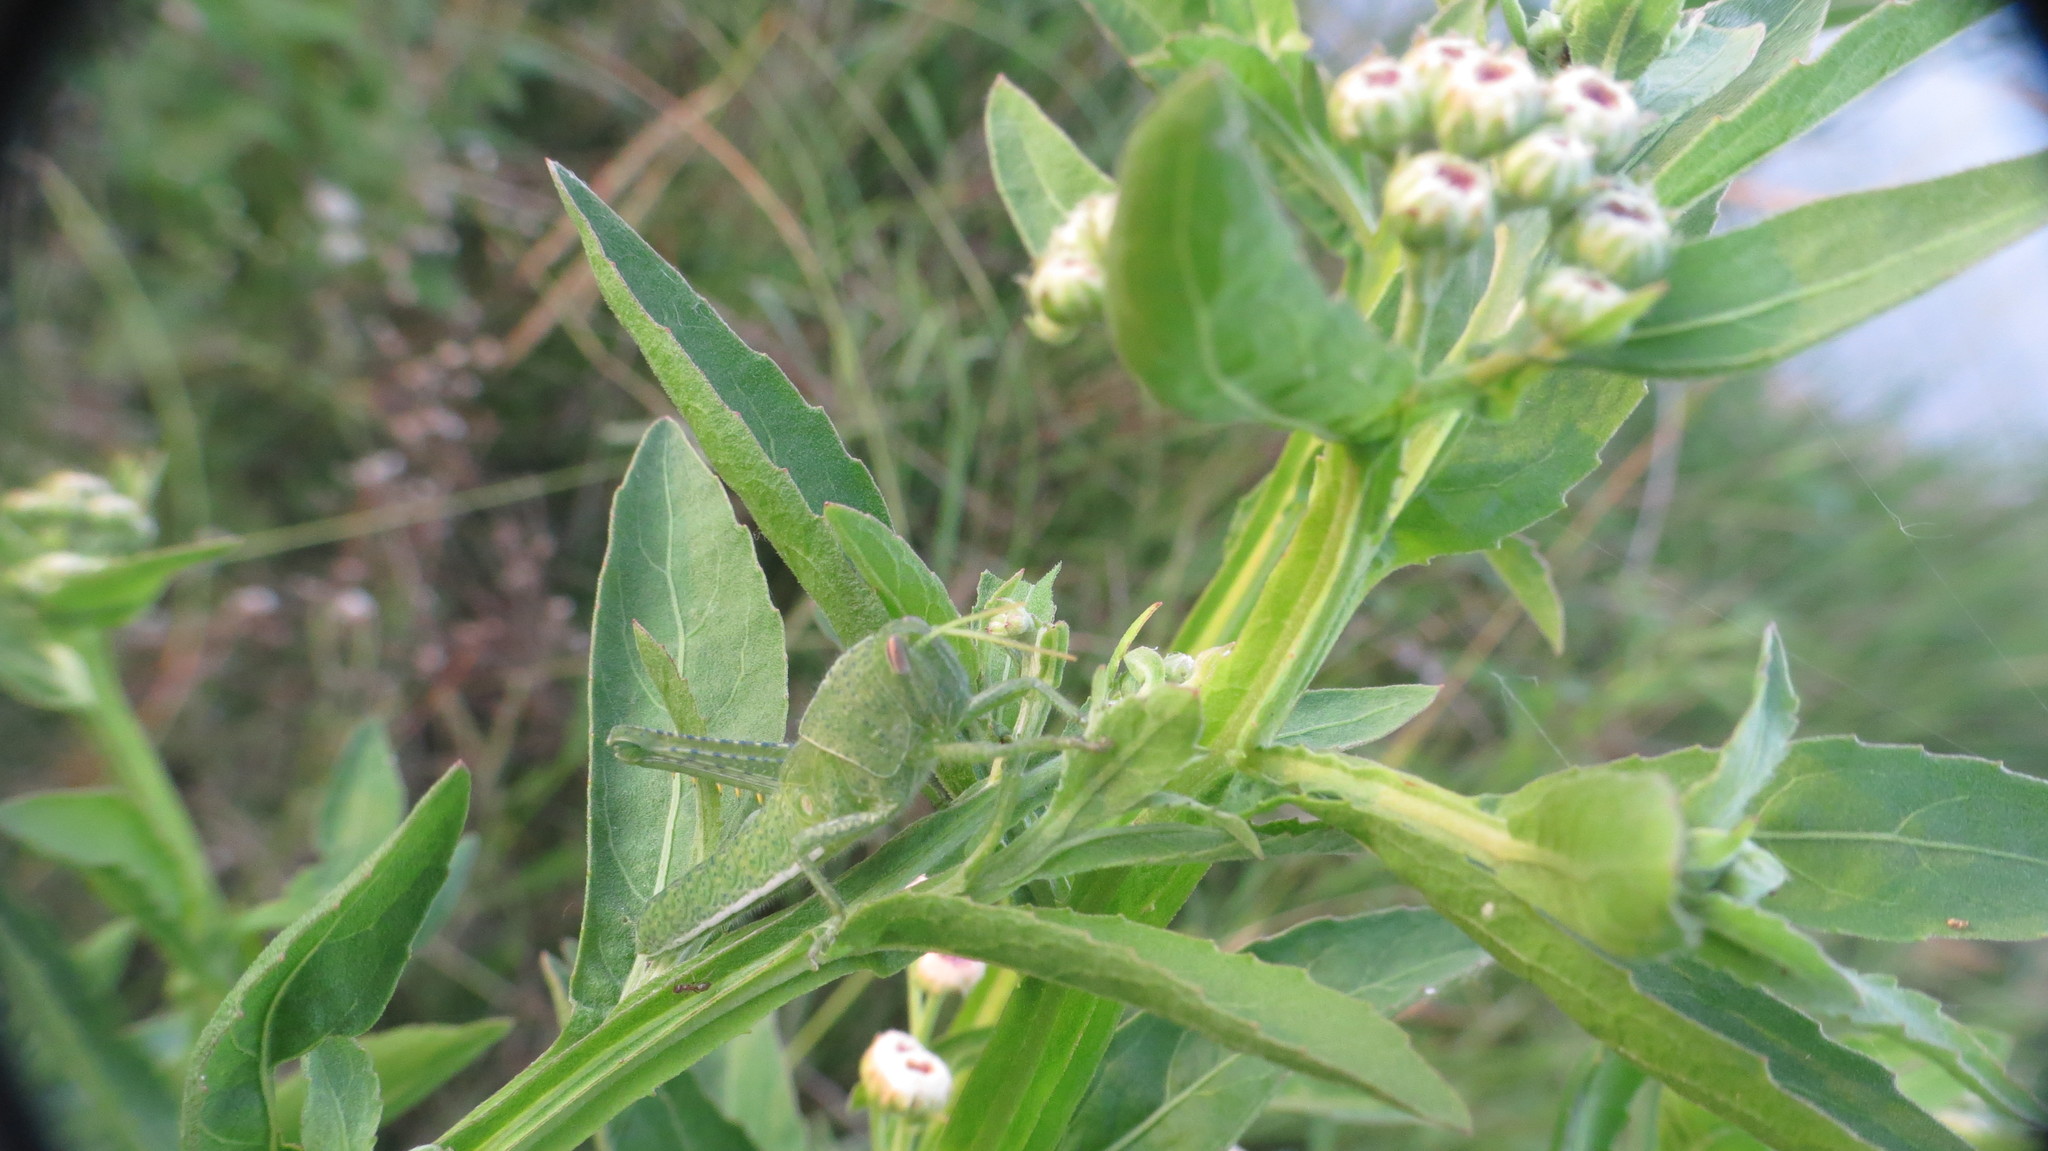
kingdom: Animalia
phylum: Arthropoda
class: Insecta
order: Orthoptera
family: Acrididae
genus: Schistocerca
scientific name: Schistocerca flavofasciata
